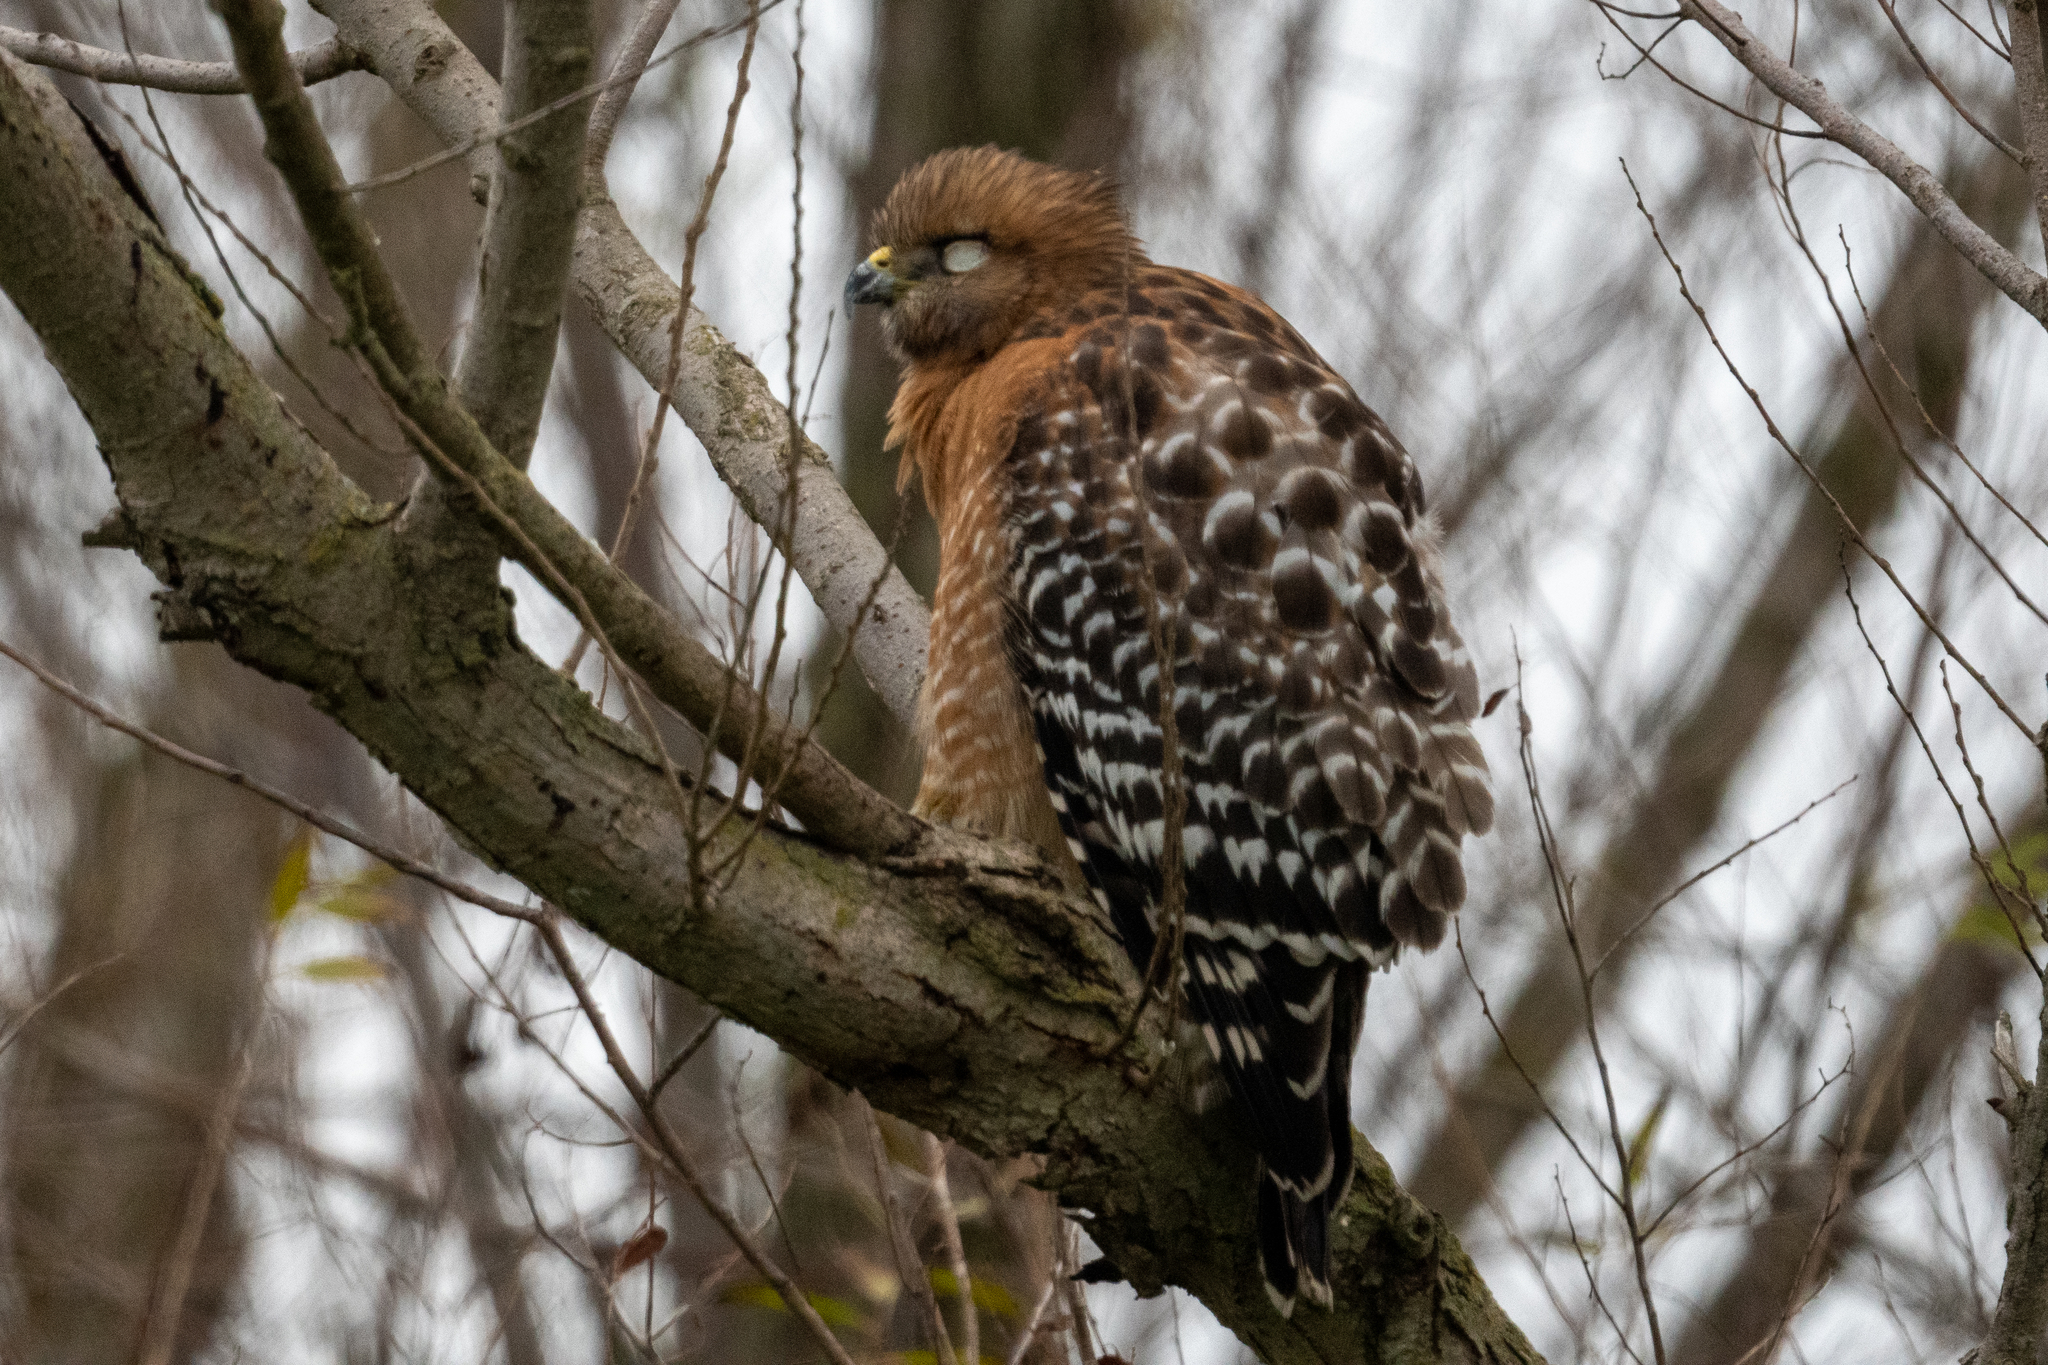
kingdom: Animalia
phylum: Chordata
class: Aves
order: Accipitriformes
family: Accipitridae
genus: Buteo
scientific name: Buteo lineatus
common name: Red-shouldered hawk
